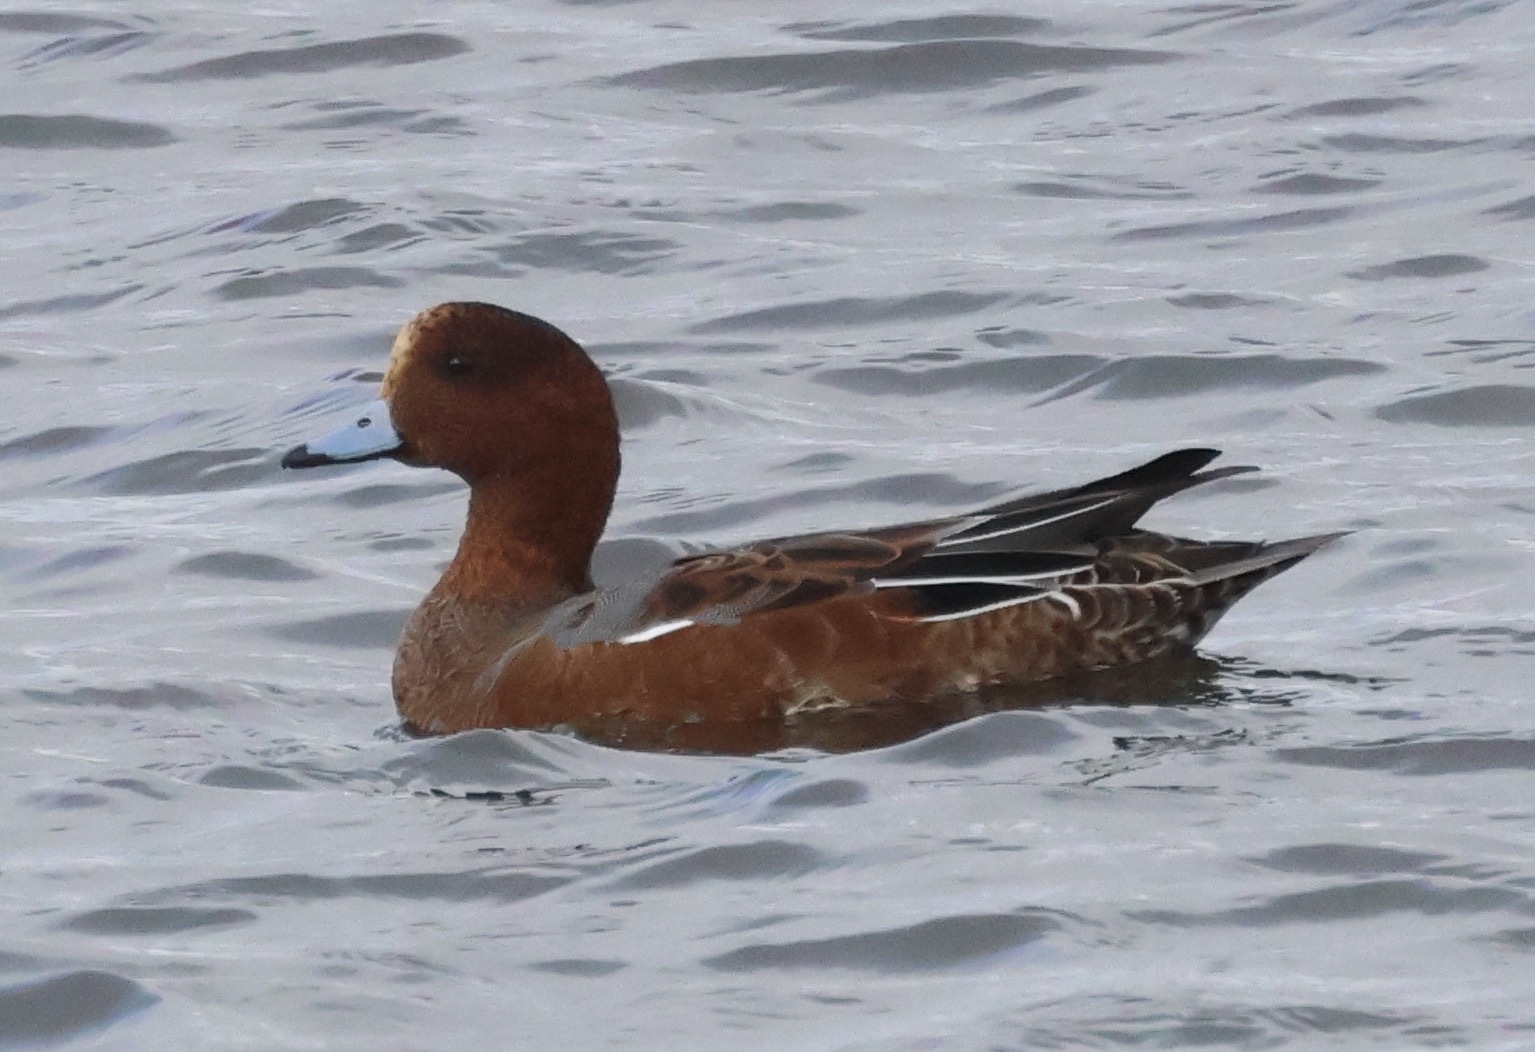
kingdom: Animalia
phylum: Chordata
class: Aves
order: Anseriformes
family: Anatidae
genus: Mareca
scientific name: Mareca penelope
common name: Eurasian wigeon
